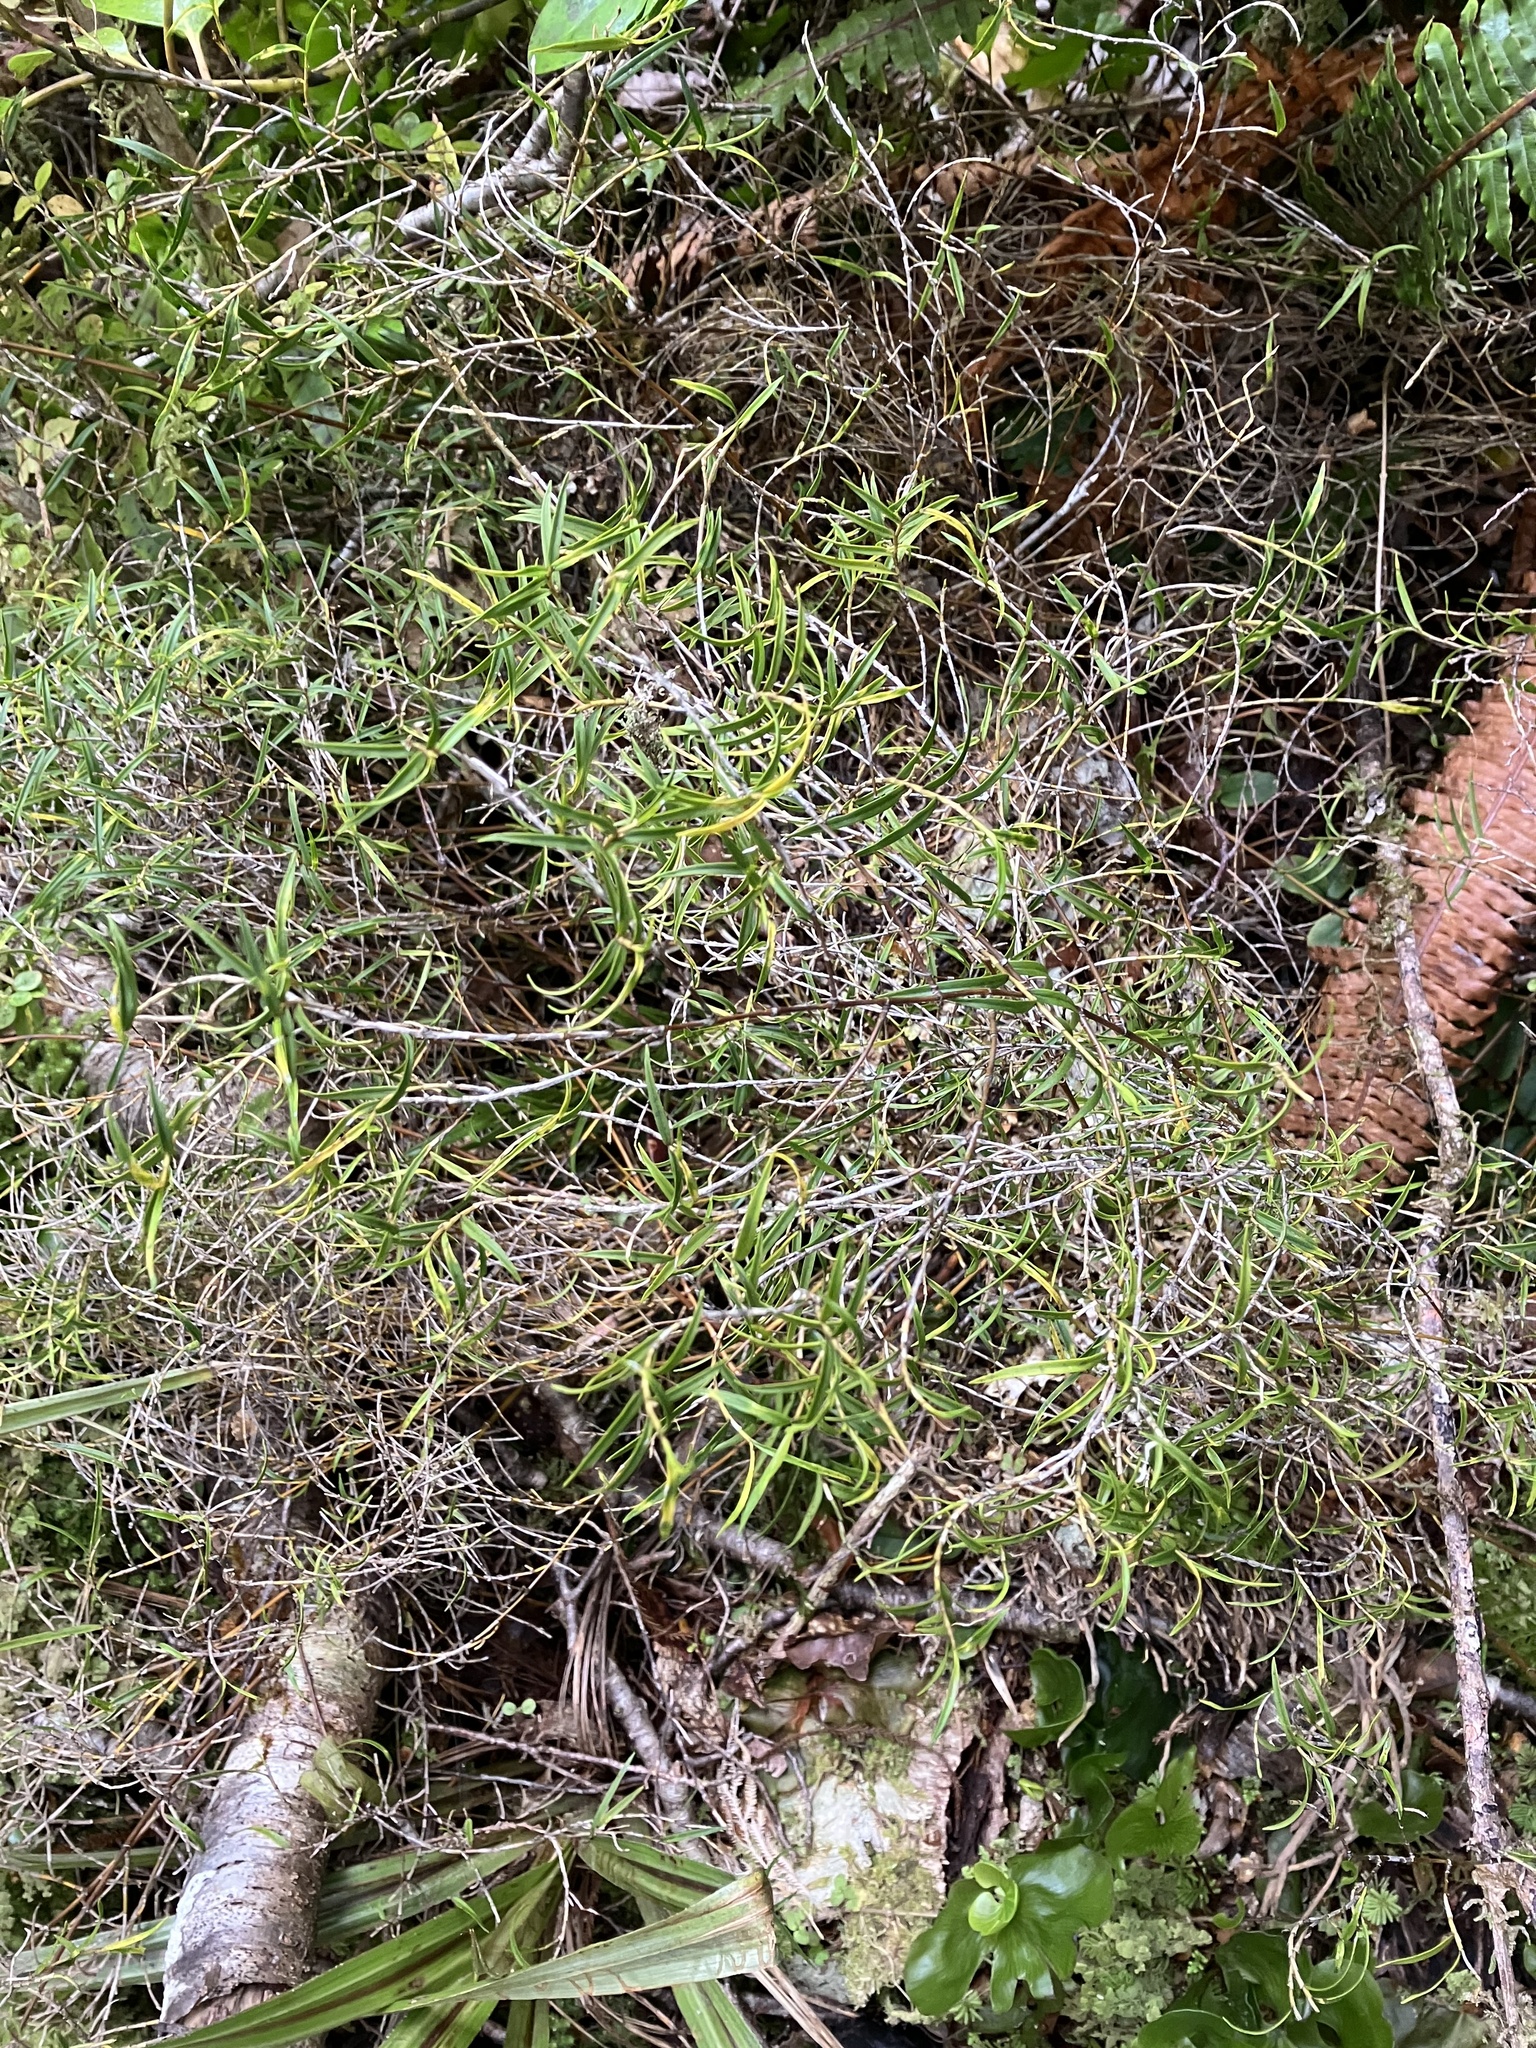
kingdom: Plantae
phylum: Tracheophyta
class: Liliopsida
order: Asparagales
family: Orchidaceae
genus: Dendrobium
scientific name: Dendrobium cunninghamii
